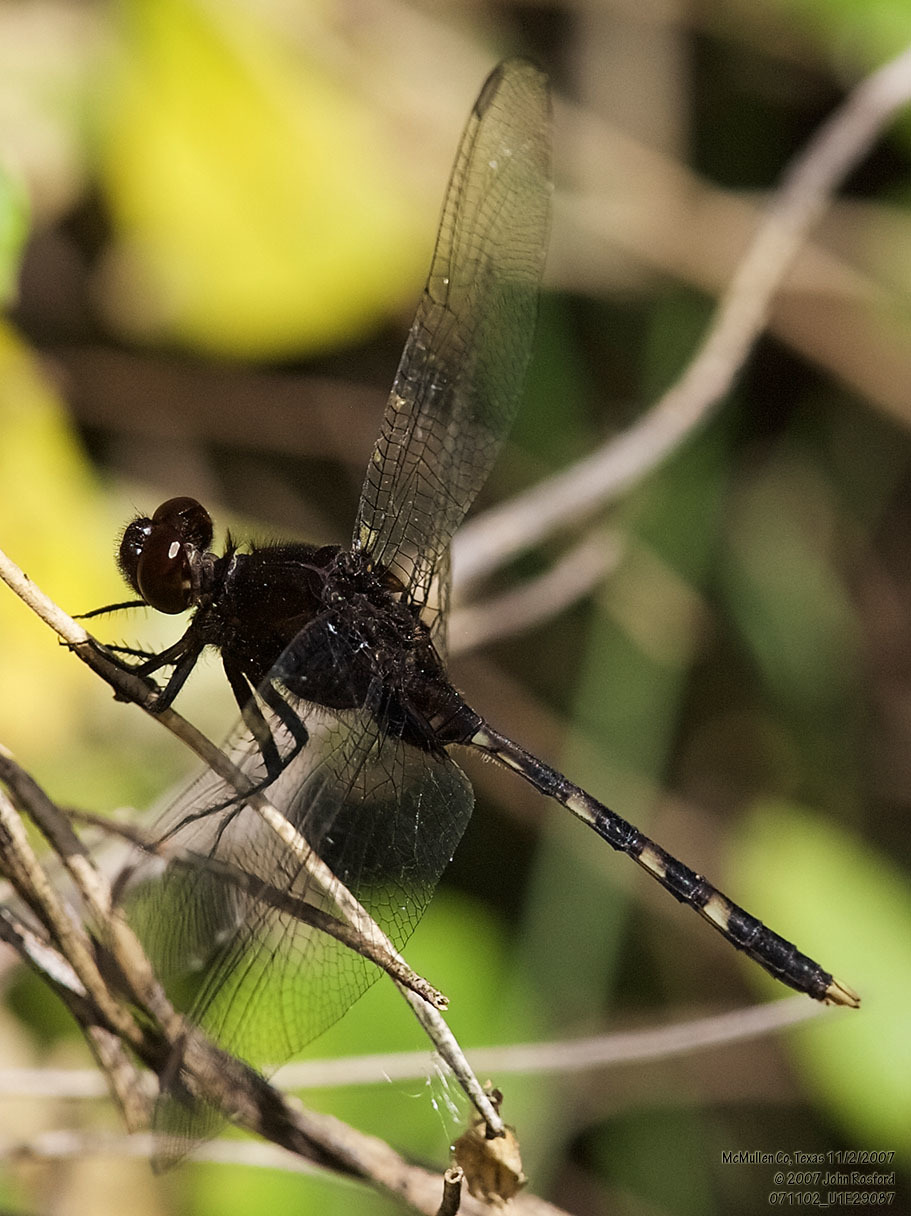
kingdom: Animalia
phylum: Arthropoda
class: Insecta
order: Odonata
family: Libellulidae
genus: Erythemis
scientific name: Erythemis plebeja
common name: Pin-tailed pondhawk
